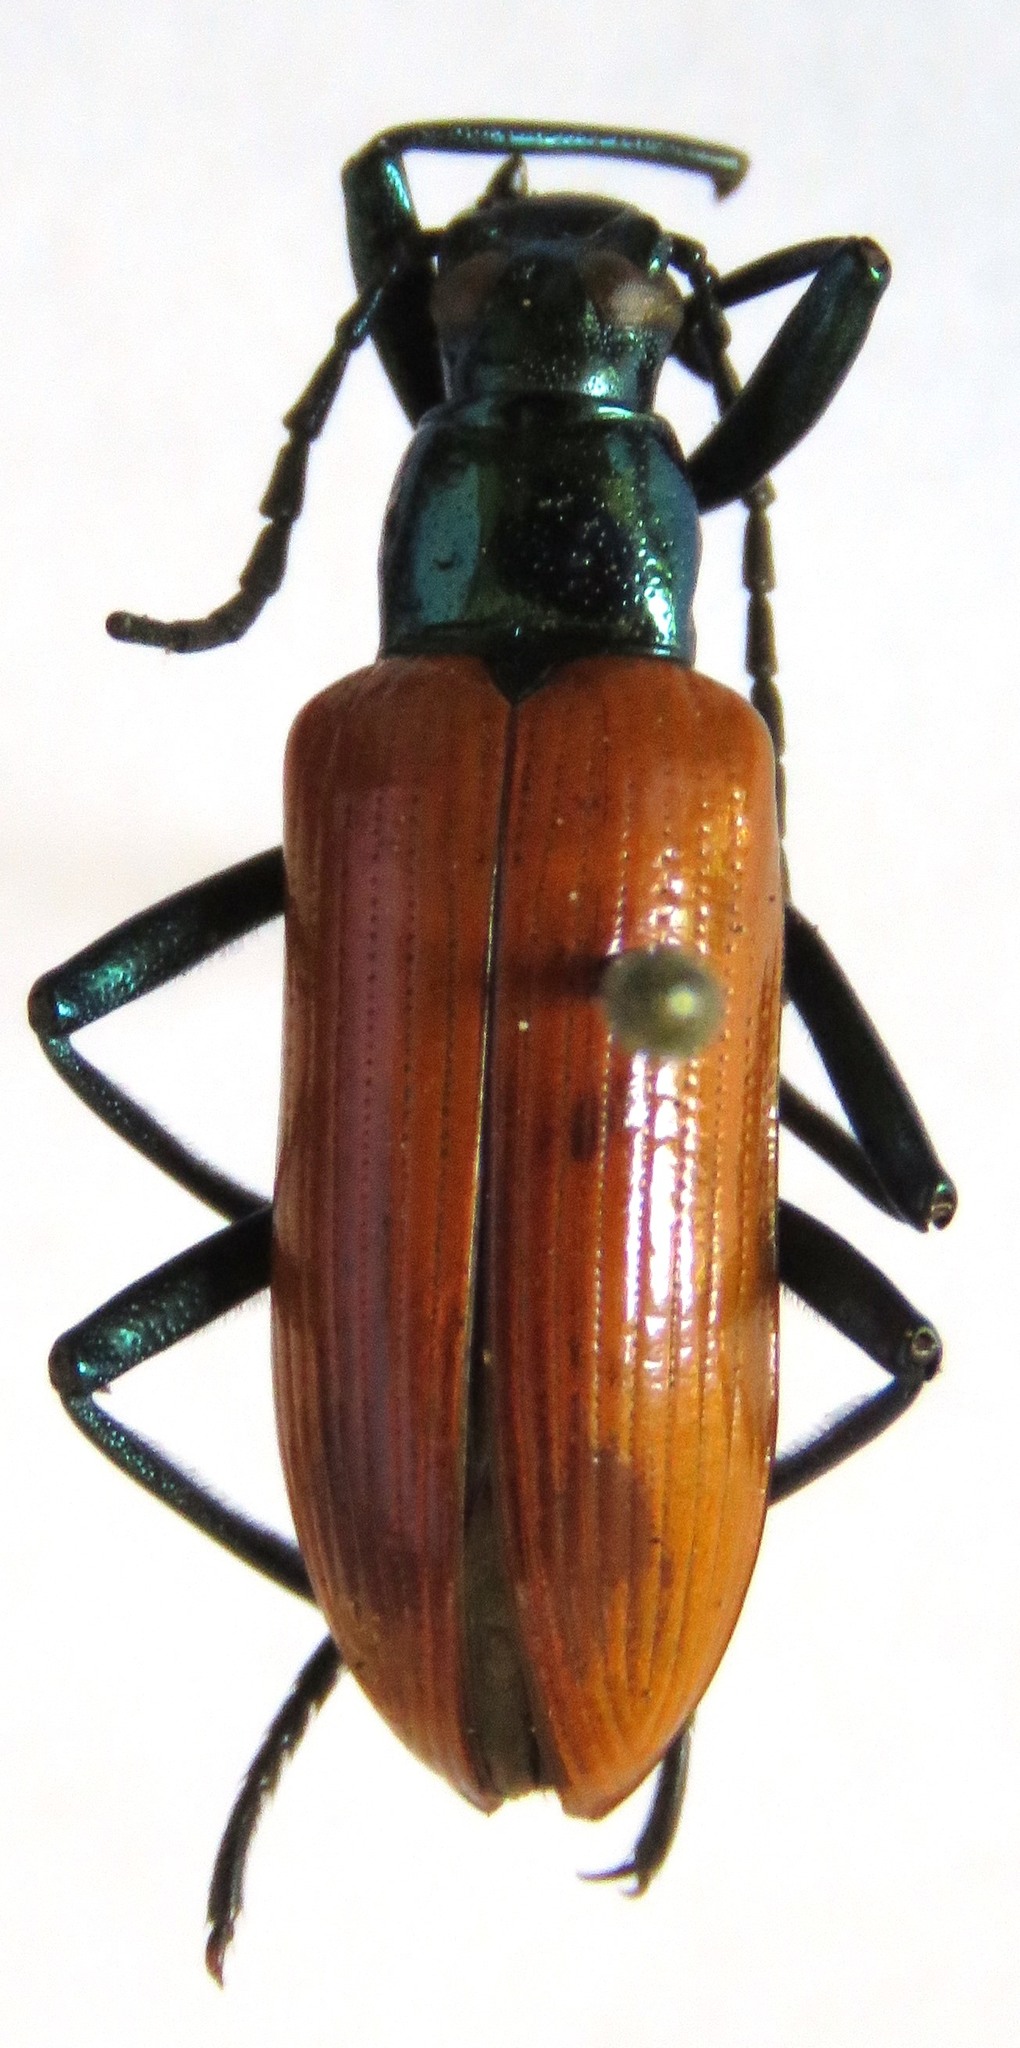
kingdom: Animalia
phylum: Arthropoda
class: Insecta
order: Coleoptera
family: Tenebrionidae
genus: Strongylium
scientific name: Strongylium
